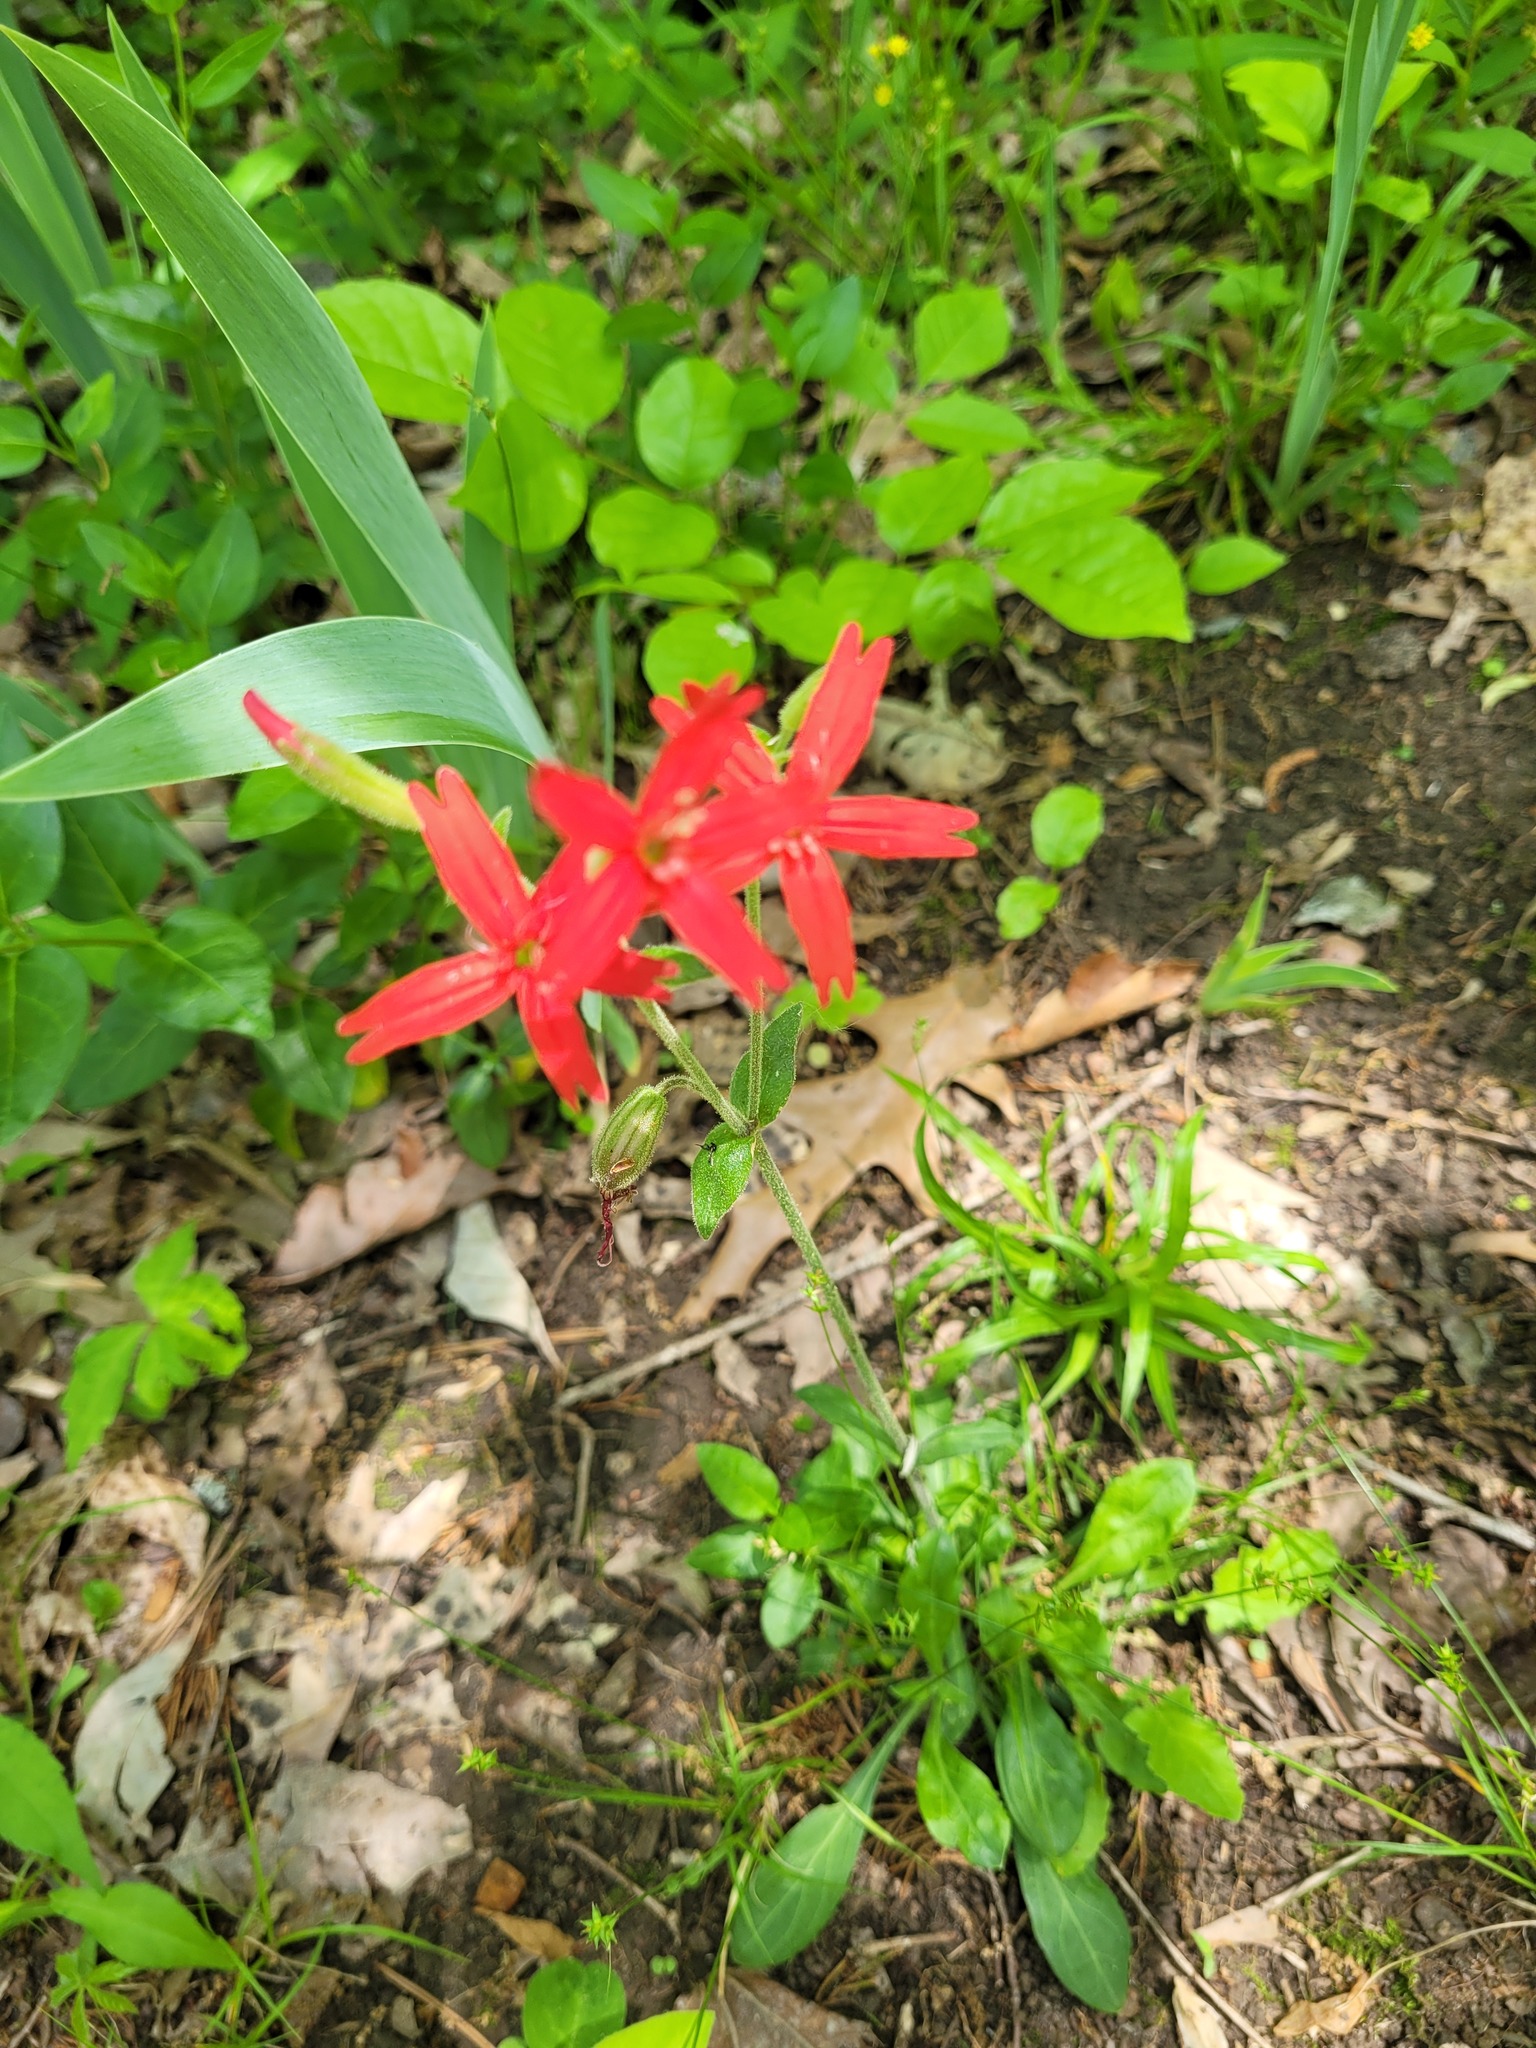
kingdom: Plantae
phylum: Tracheophyta
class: Magnoliopsida
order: Caryophyllales
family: Caryophyllaceae
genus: Silene
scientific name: Silene virginica
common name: Fire-pink
